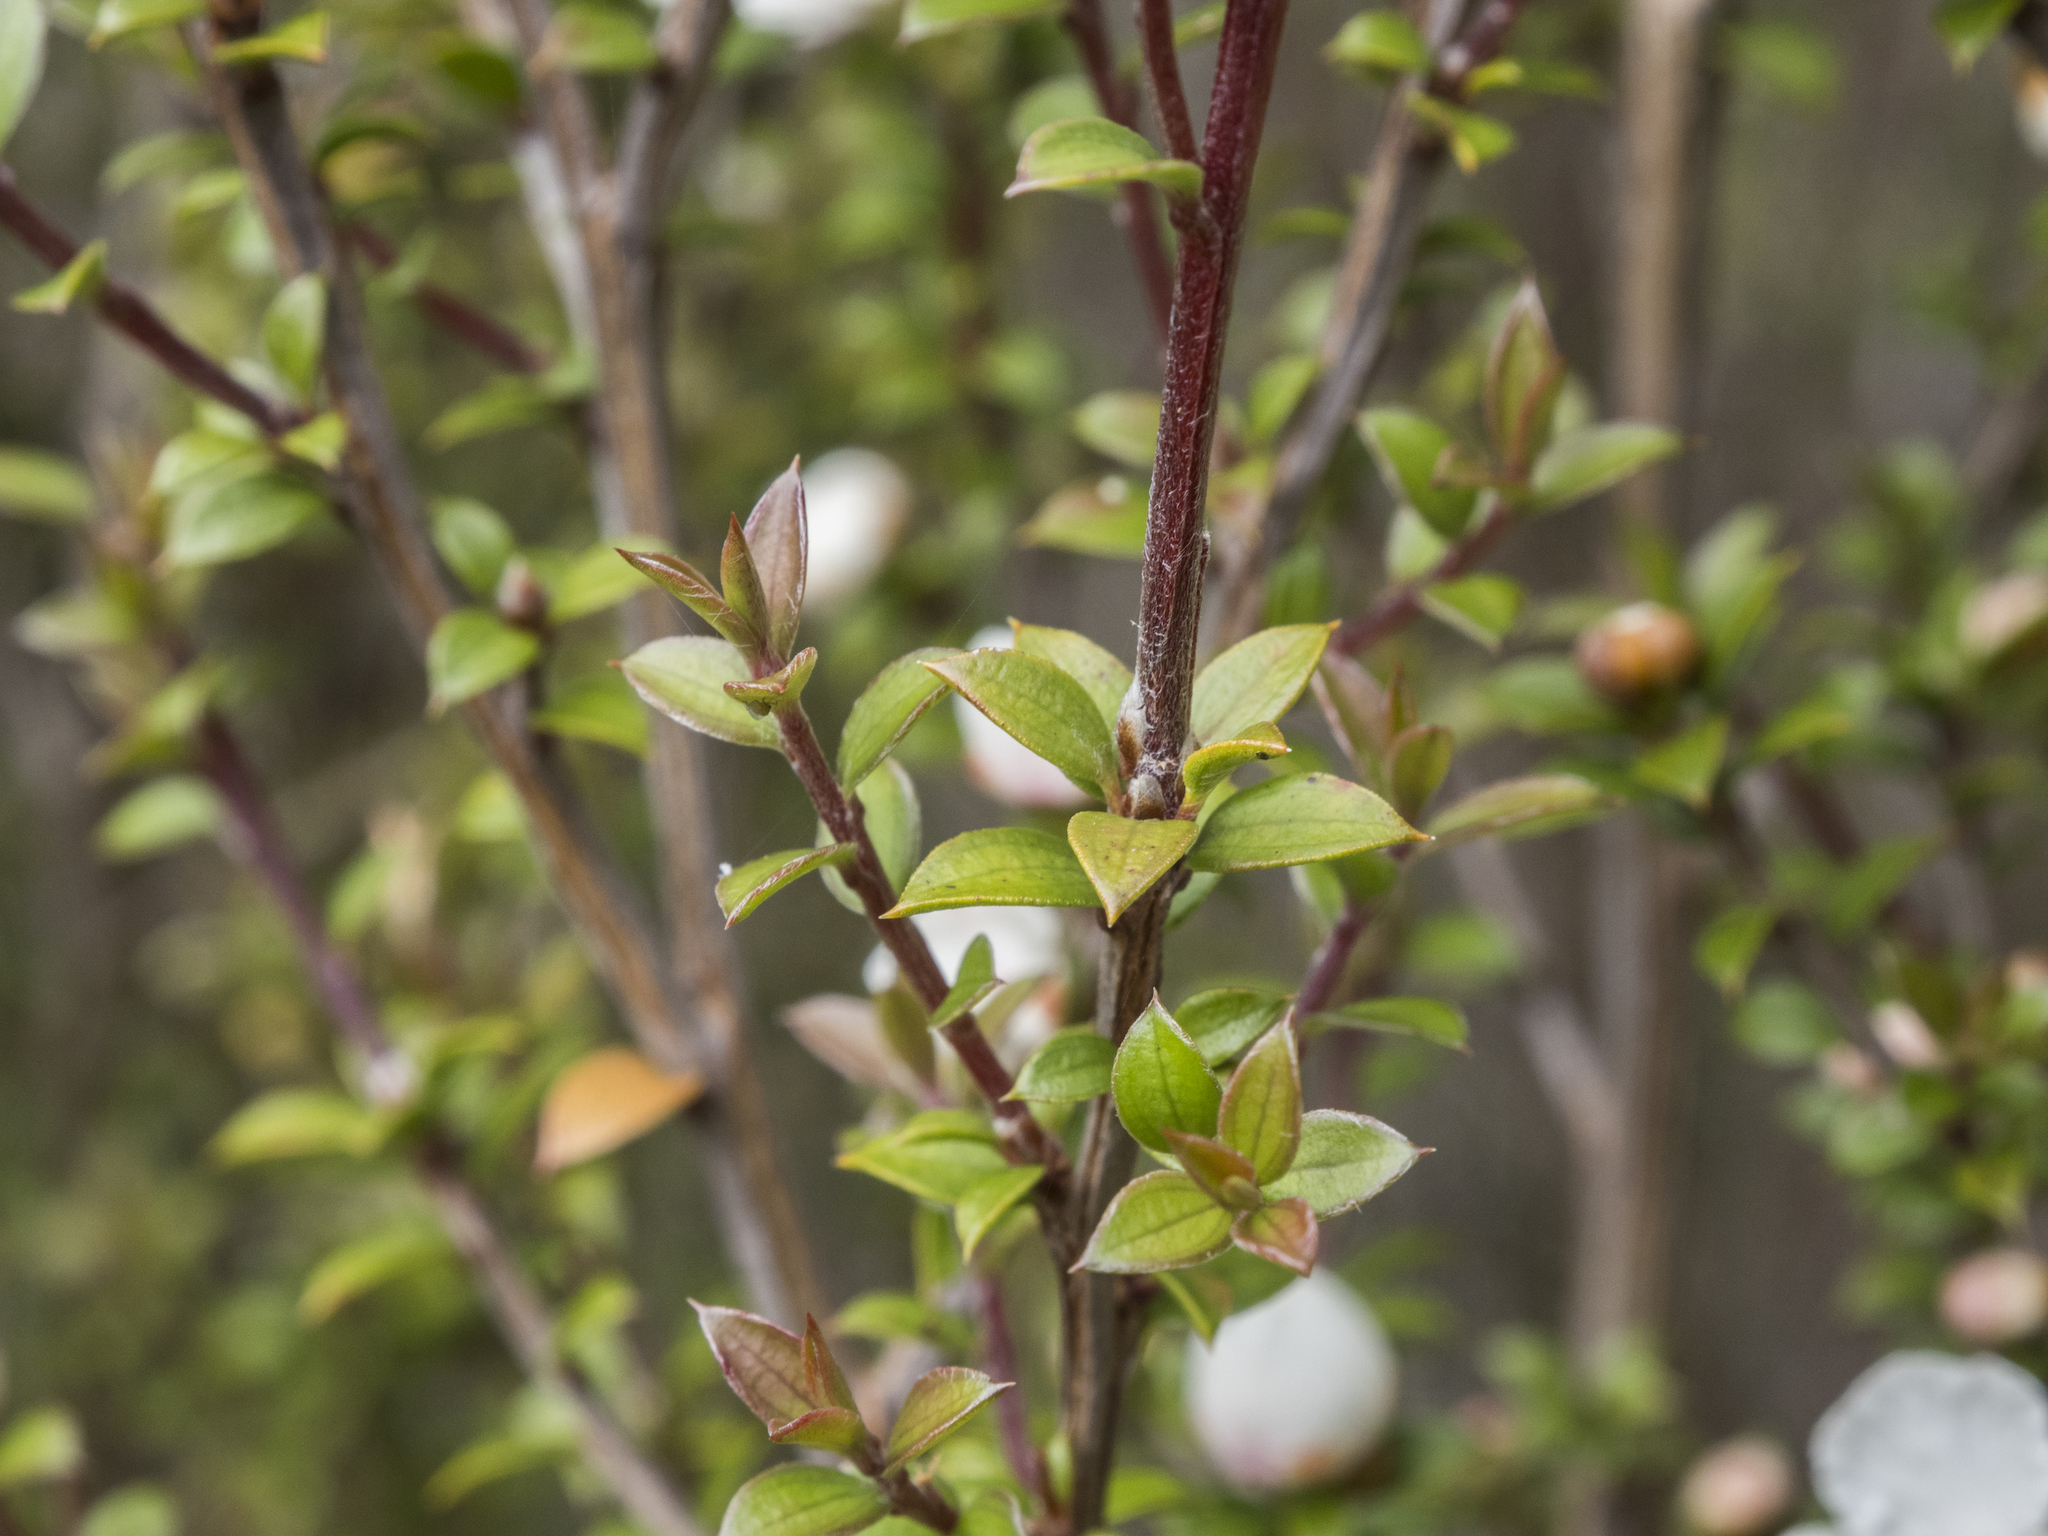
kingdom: Plantae
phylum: Tracheophyta
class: Magnoliopsida
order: Myrtales
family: Myrtaceae
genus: Leptospermum
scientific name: Leptospermum scoparium
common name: Broom tea-tree
